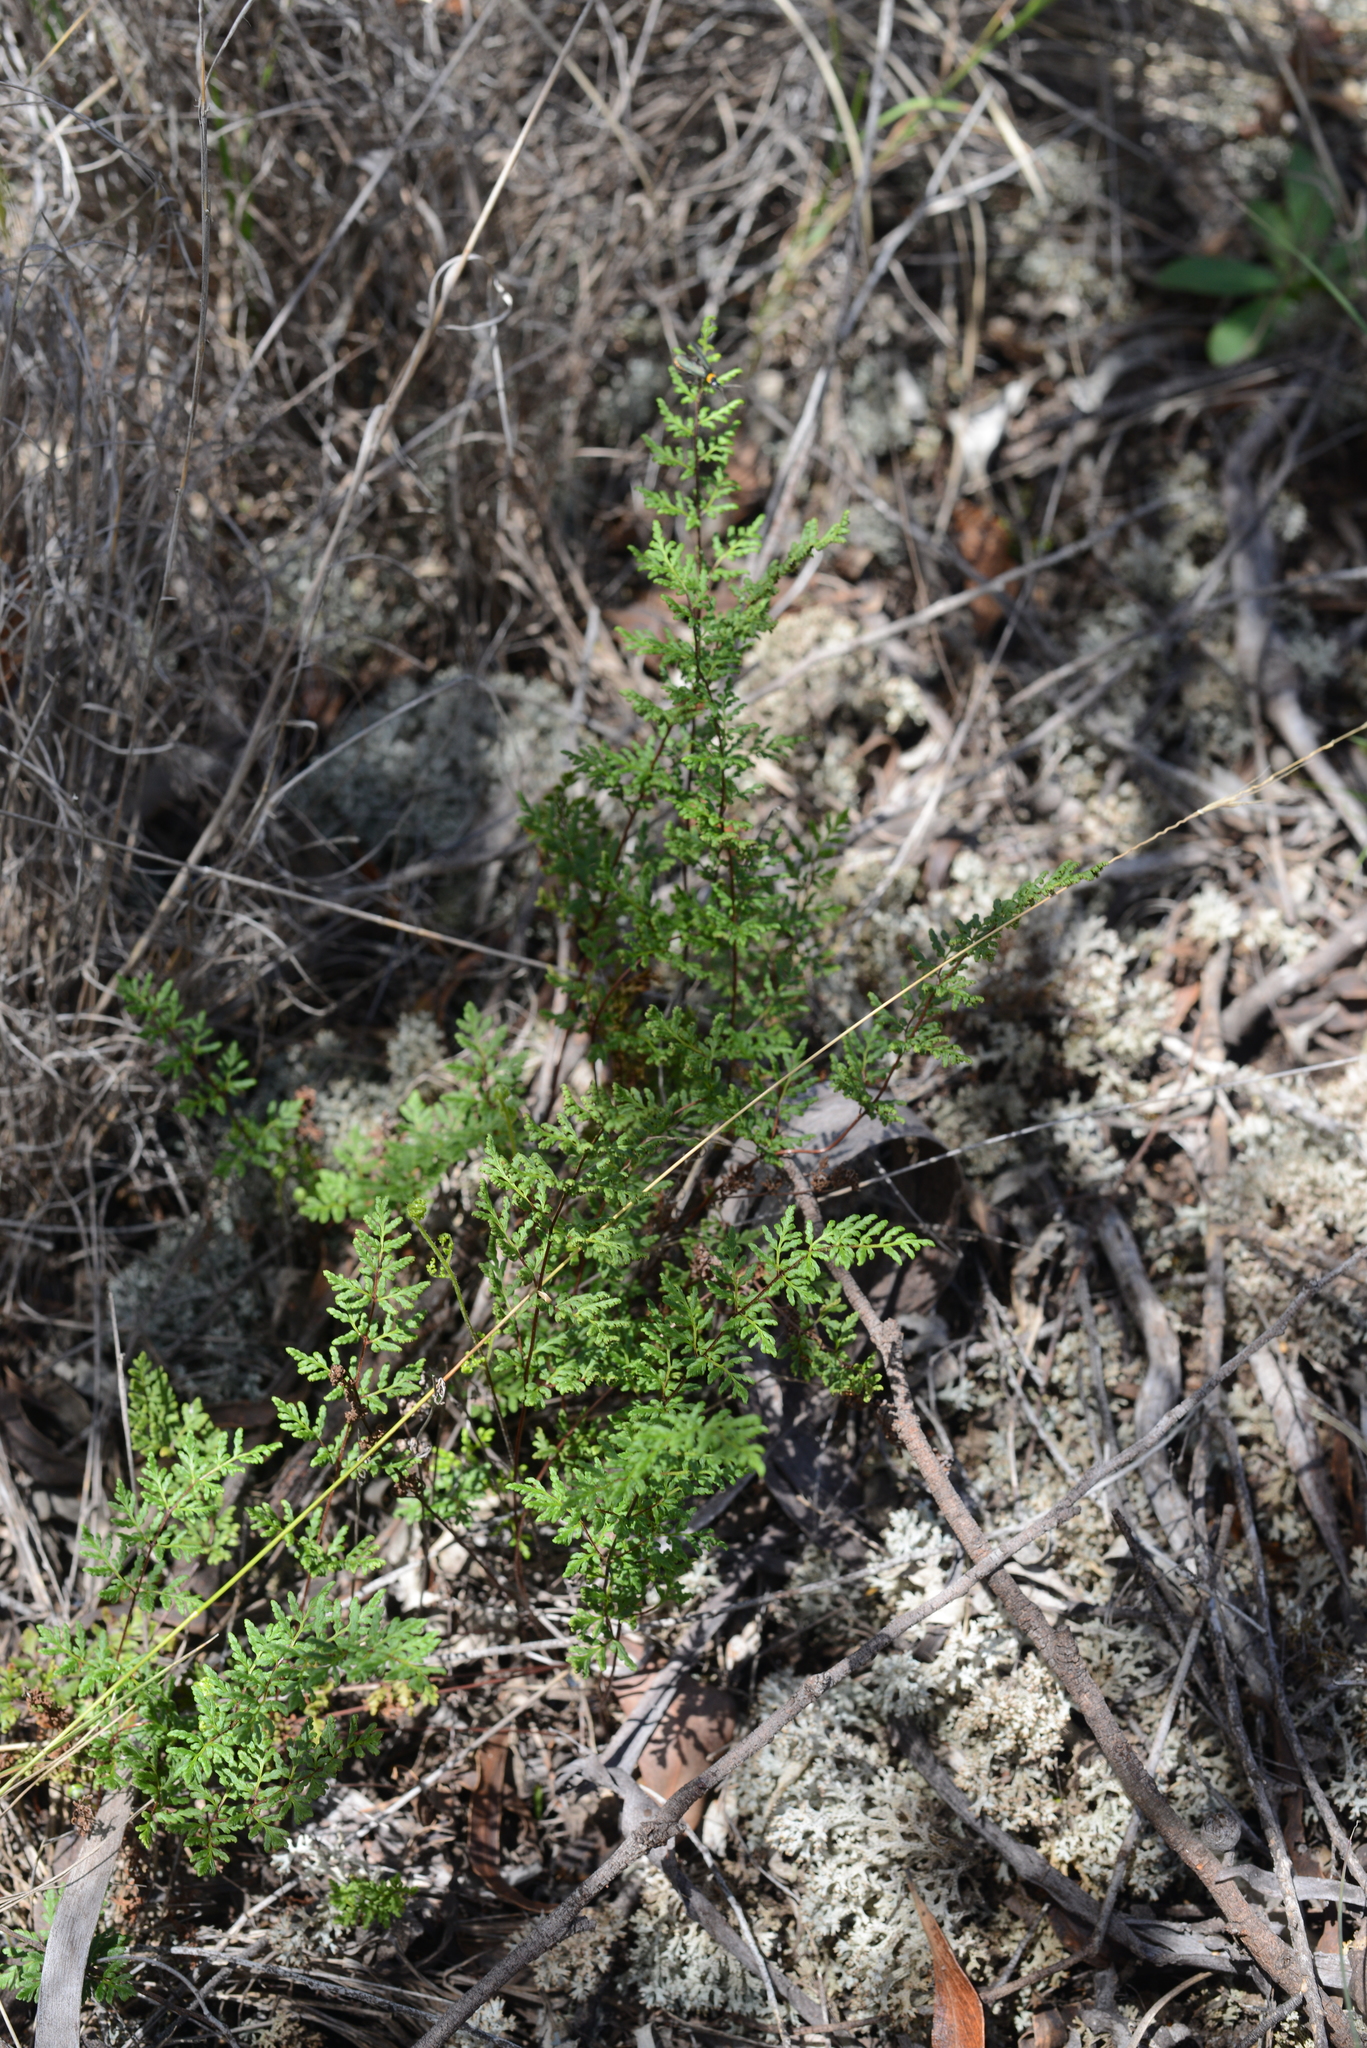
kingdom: Plantae
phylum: Tracheophyta
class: Polypodiopsida
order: Polypodiales
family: Pteridaceae
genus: Cheilanthes
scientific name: Cheilanthes sieberi
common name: Mulga fern
